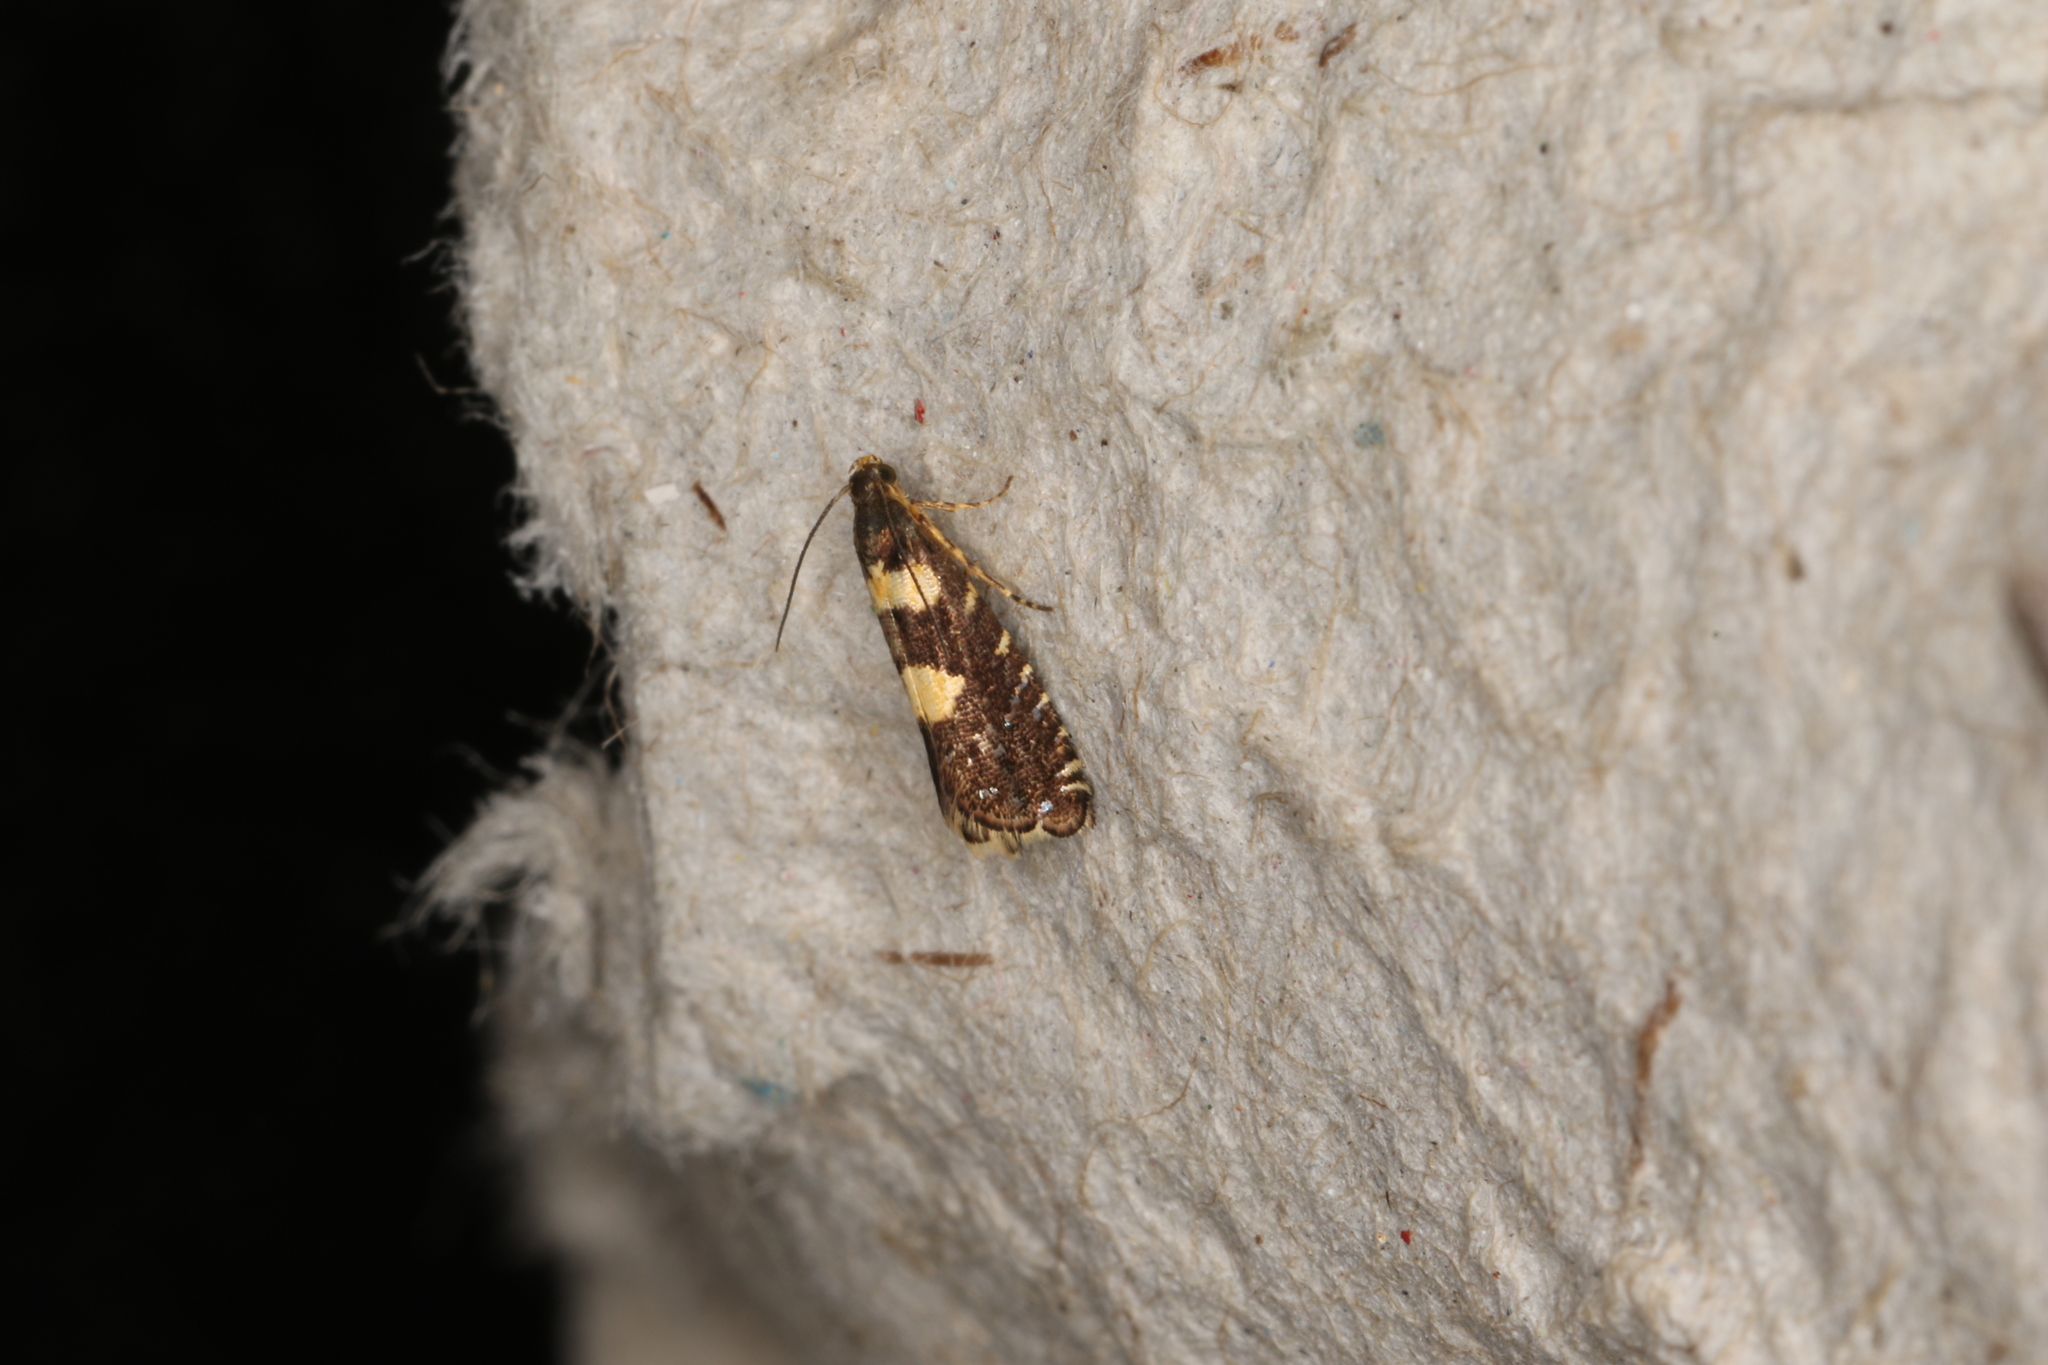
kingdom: Animalia
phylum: Arthropoda
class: Insecta
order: Lepidoptera
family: Glyphipterigidae
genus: Glyphipterix
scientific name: Glyphipterix chrysoplanetis
